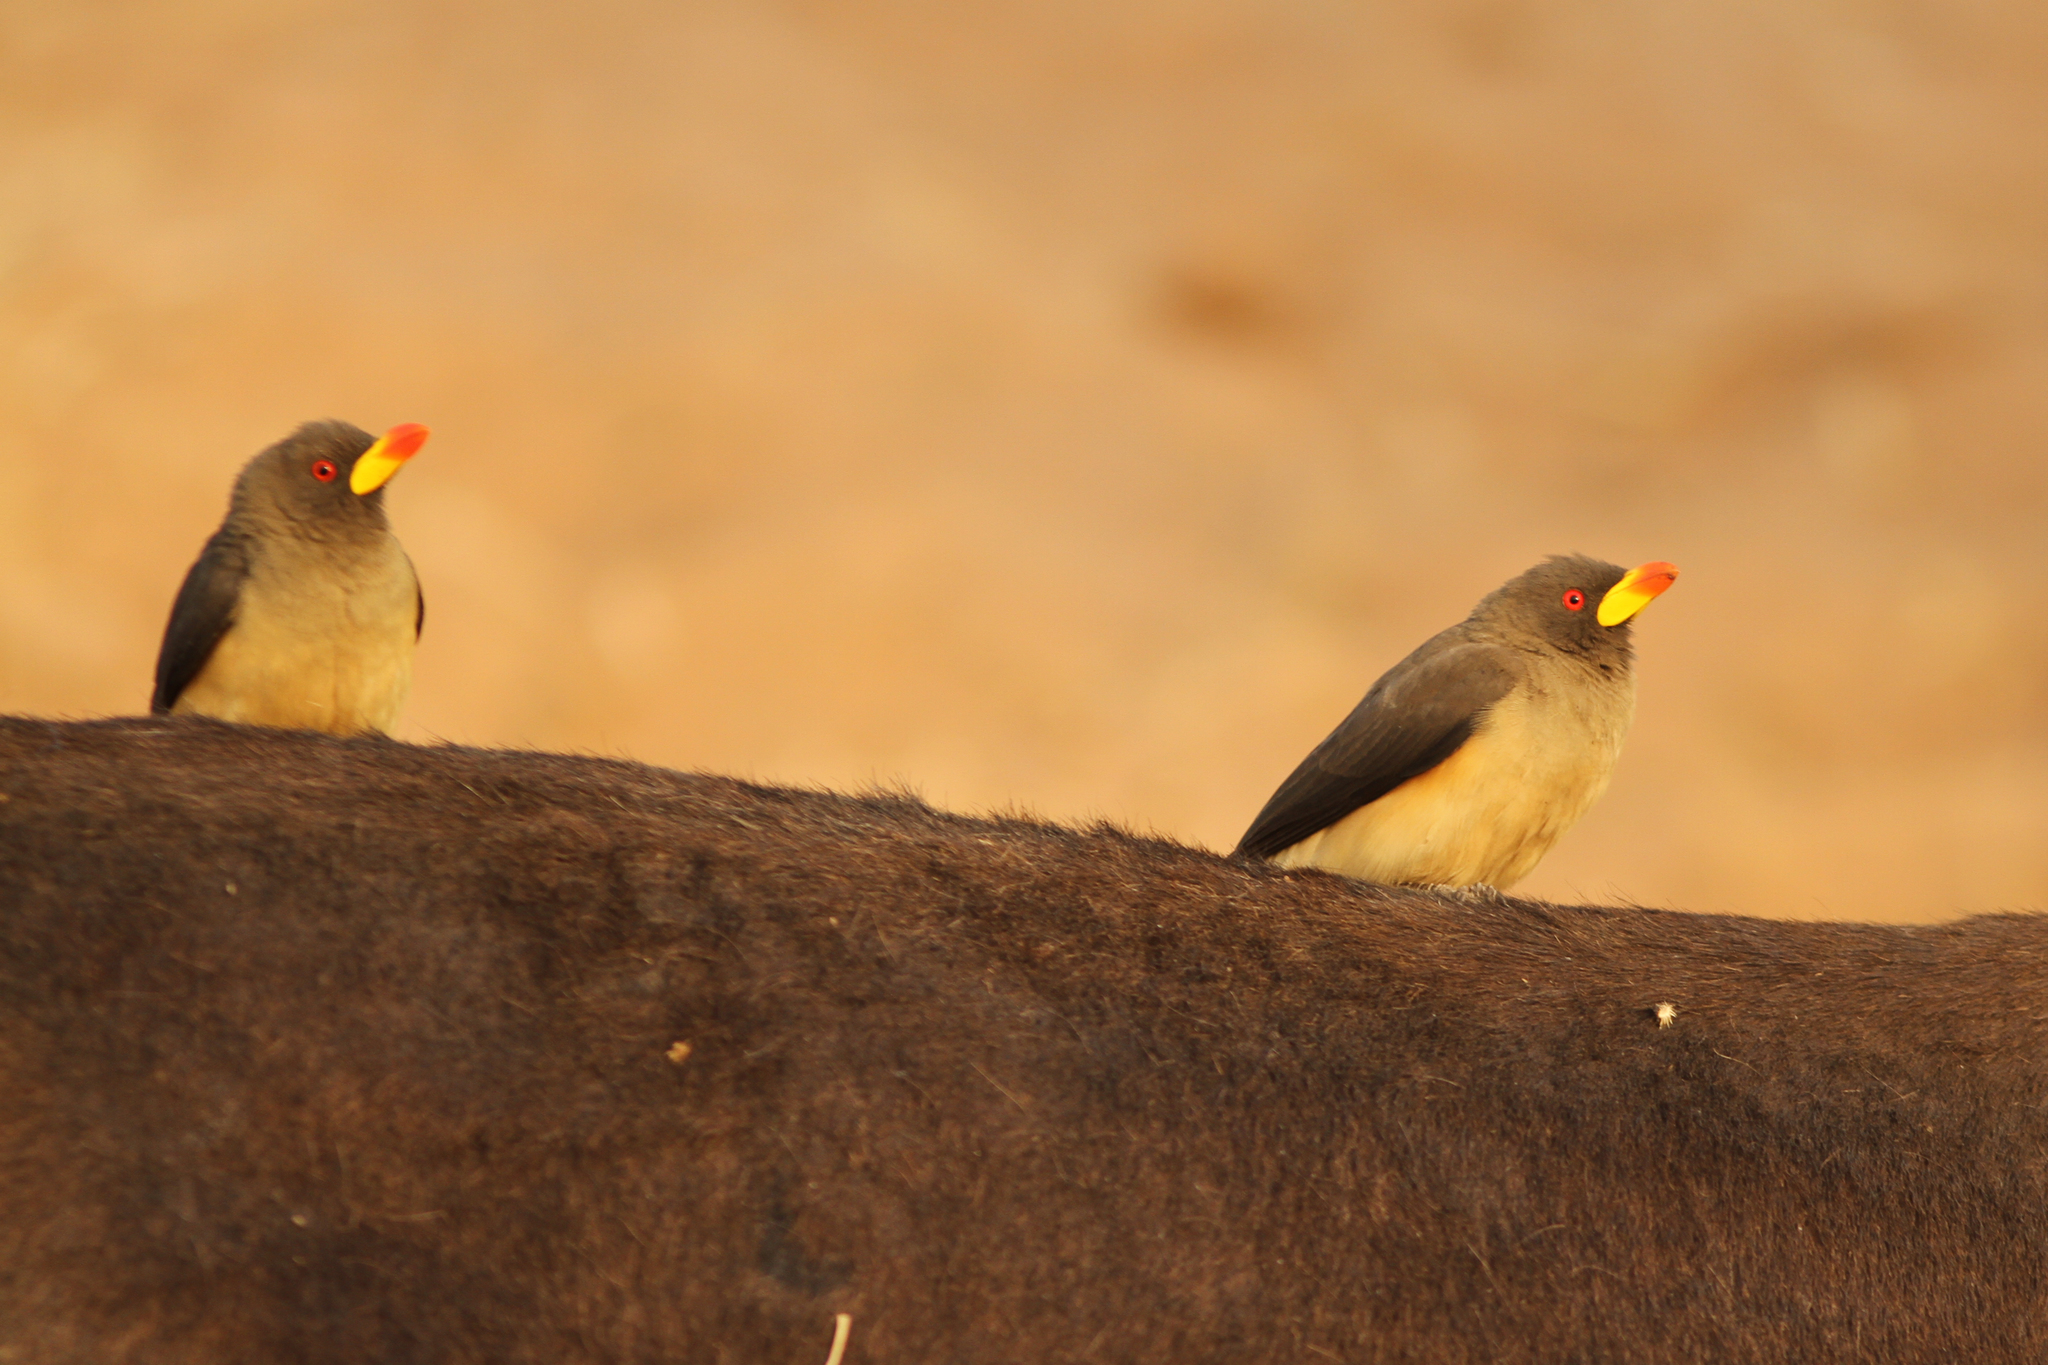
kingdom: Animalia
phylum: Chordata
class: Aves
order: Passeriformes
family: Buphagidae
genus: Buphagus
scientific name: Buphagus africanus
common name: Yellow-billed oxpecker
